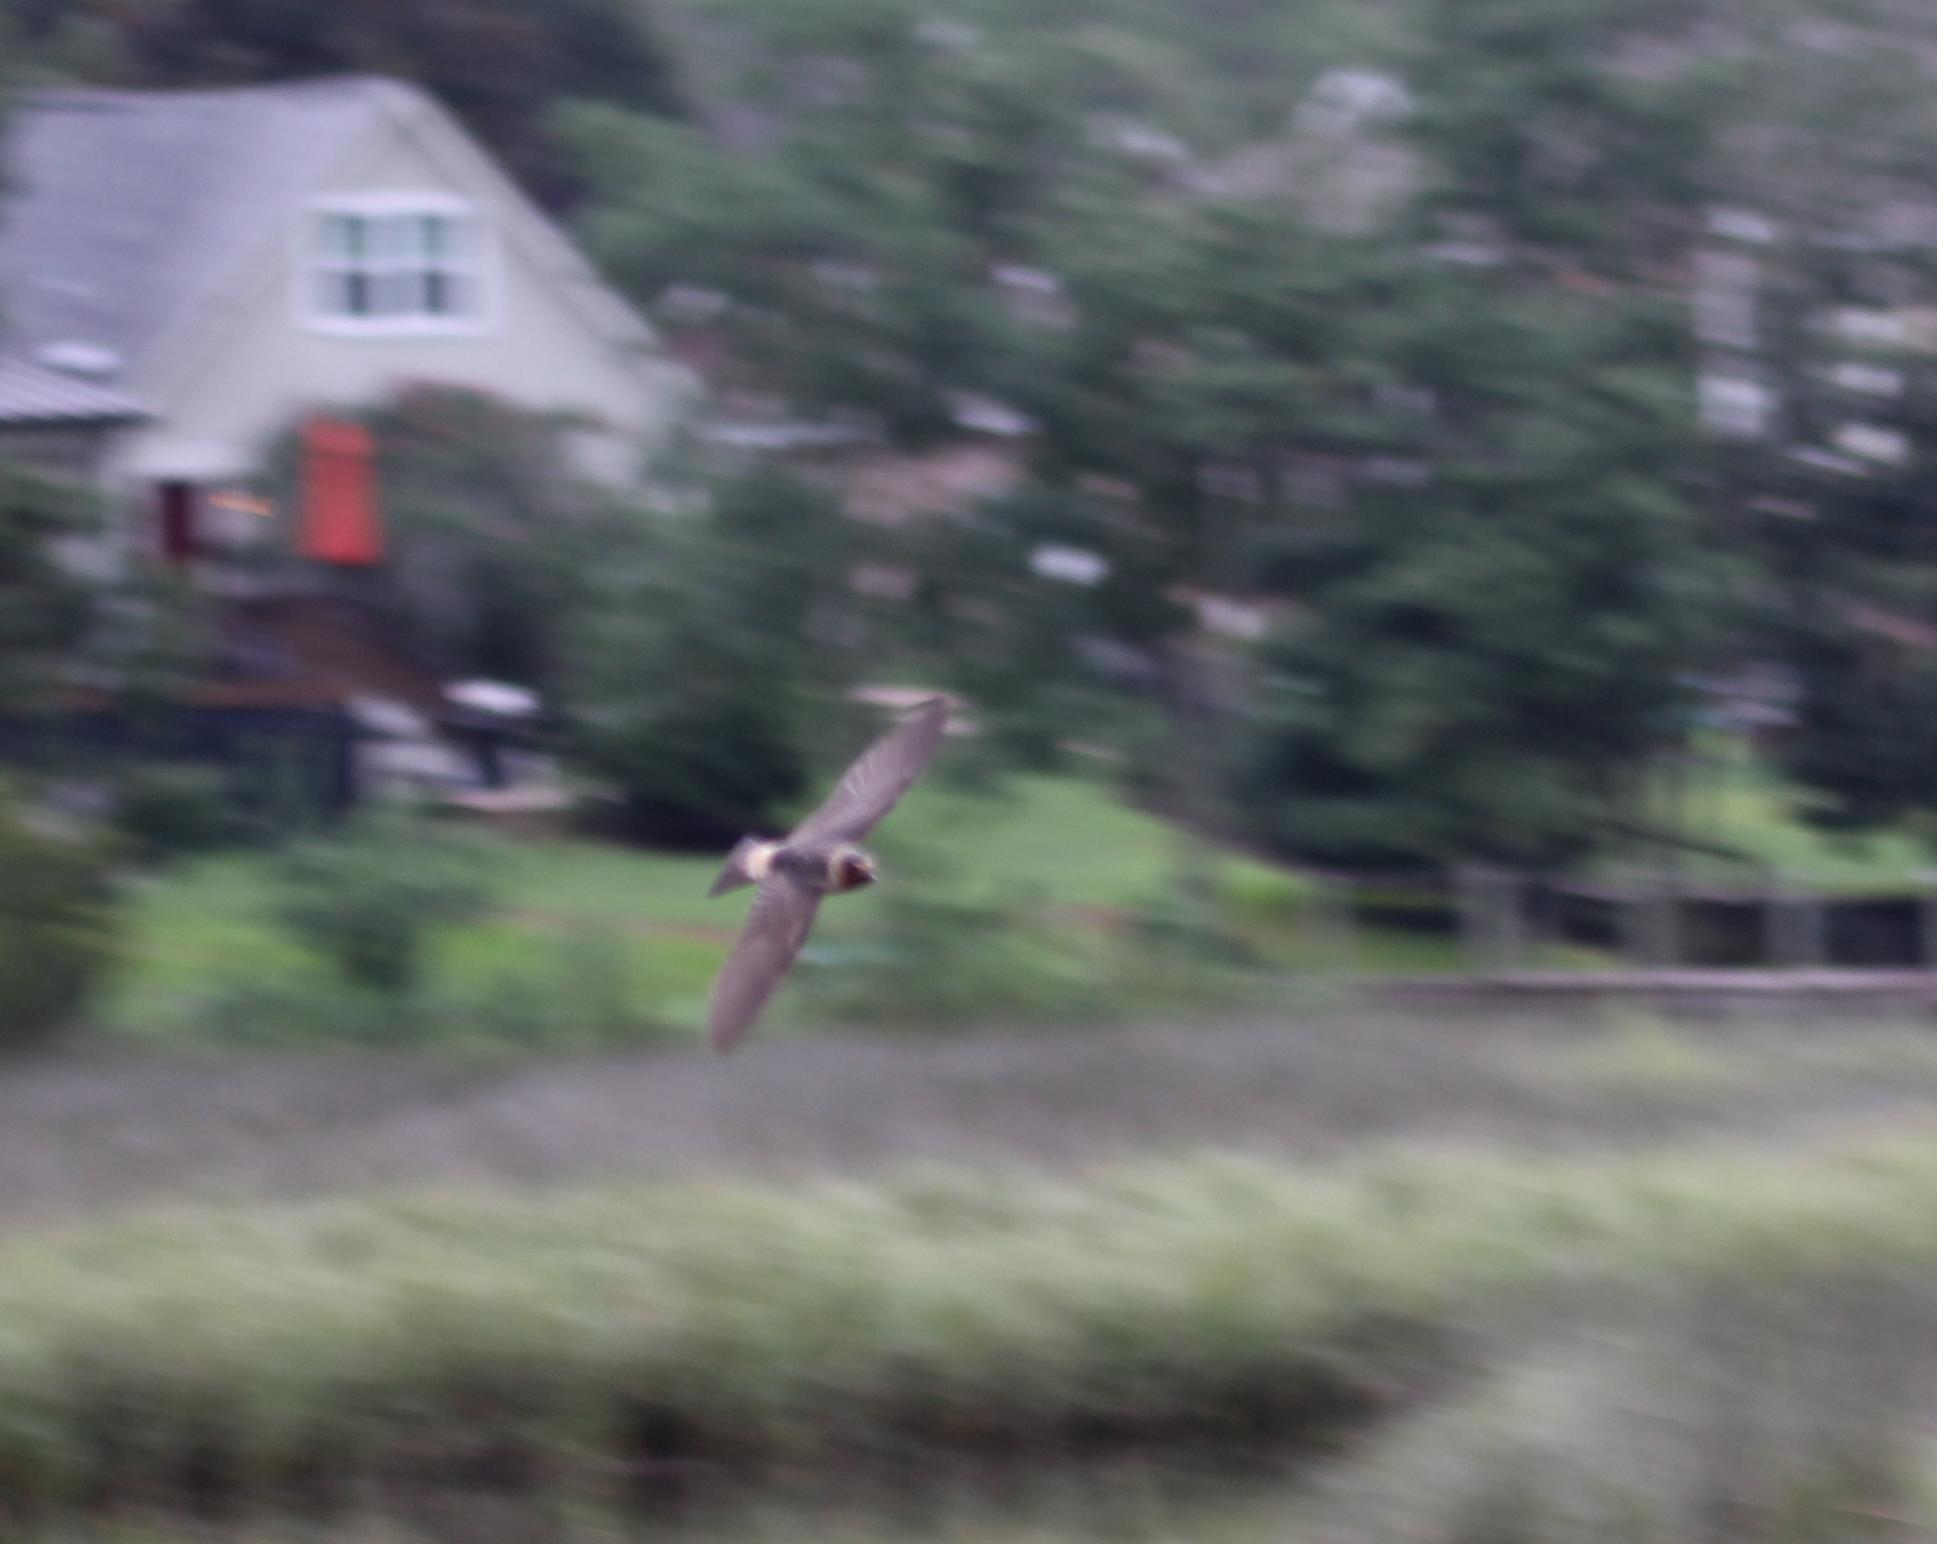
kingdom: Animalia
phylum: Chordata
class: Aves
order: Passeriformes
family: Hirundinidae
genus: Petrochelidon
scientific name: Petrochelidon pyrrhonota
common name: American cliff swallow
